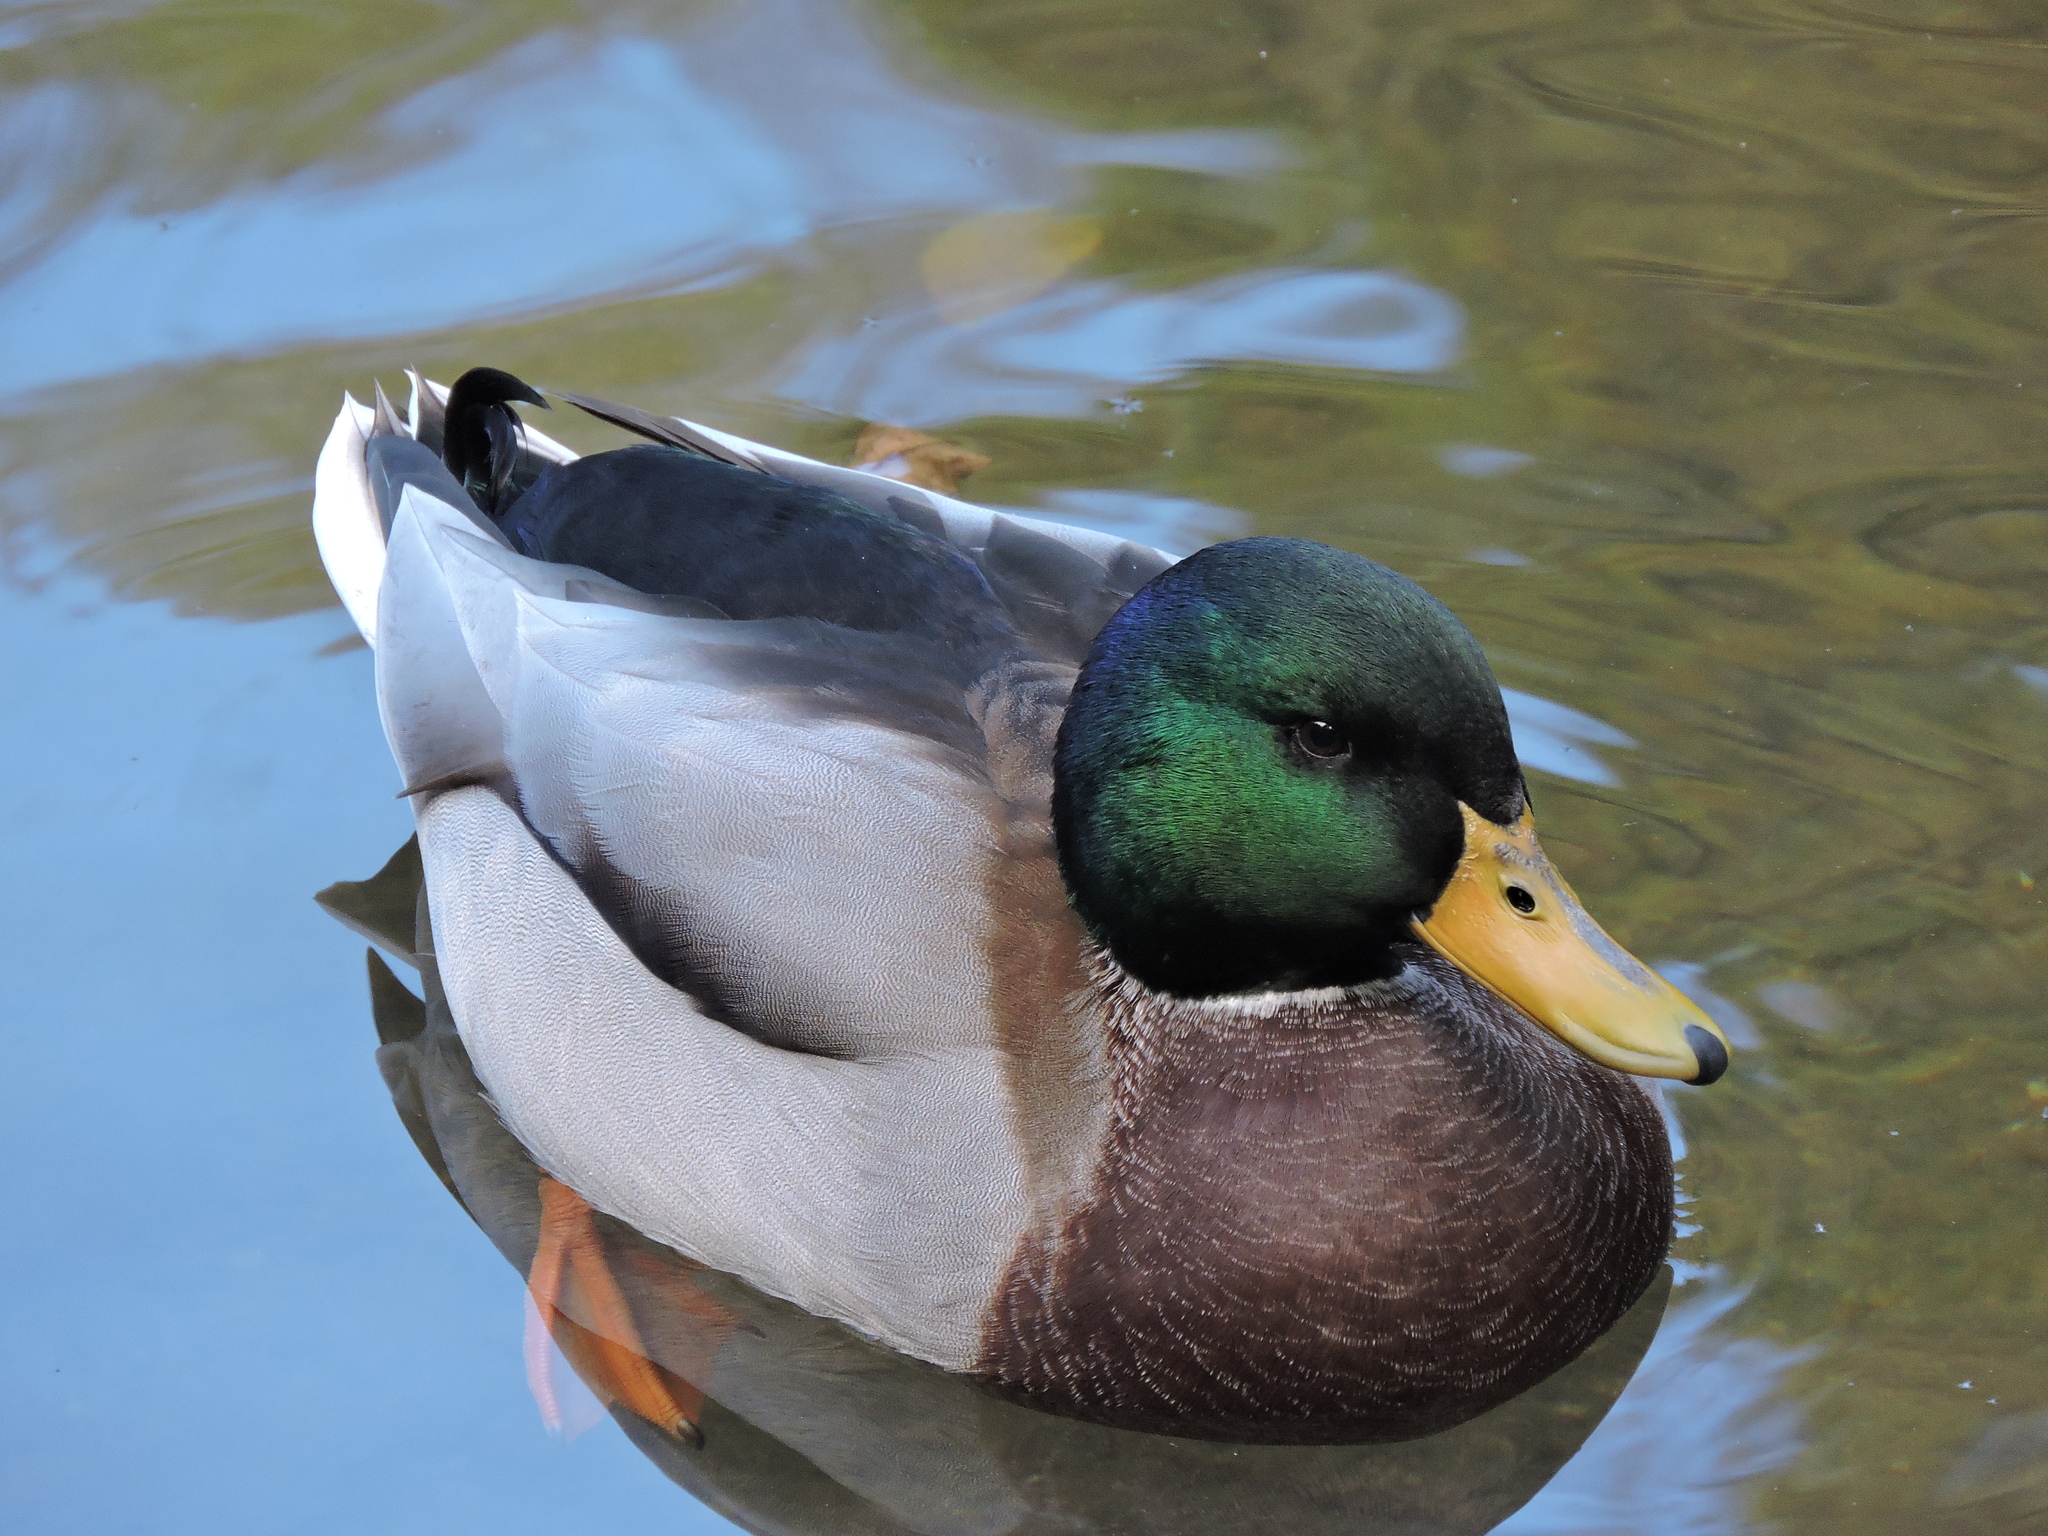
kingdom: Animalia
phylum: Chordata
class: Aves
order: Anseriformes
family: Anatidae
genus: Anas
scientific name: Anas platyrhynchos
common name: Mallard
